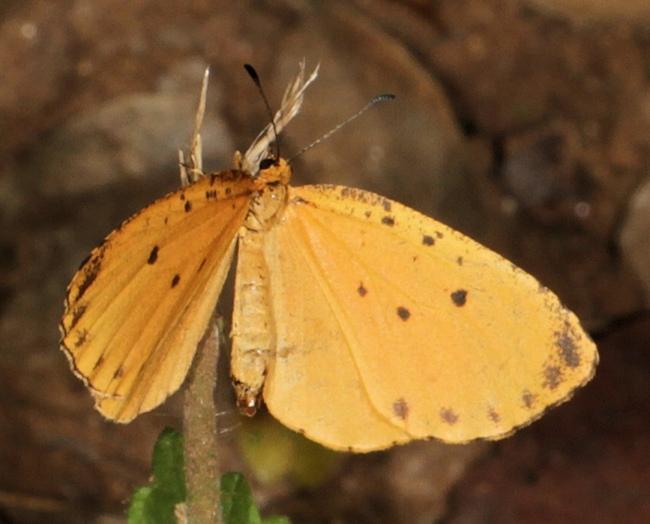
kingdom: Animalia
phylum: Arthropoda
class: Insecta
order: Lepidoptera
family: Lycaenidae
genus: Pentila
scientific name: Pentila tropicalis
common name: Spotted buff
